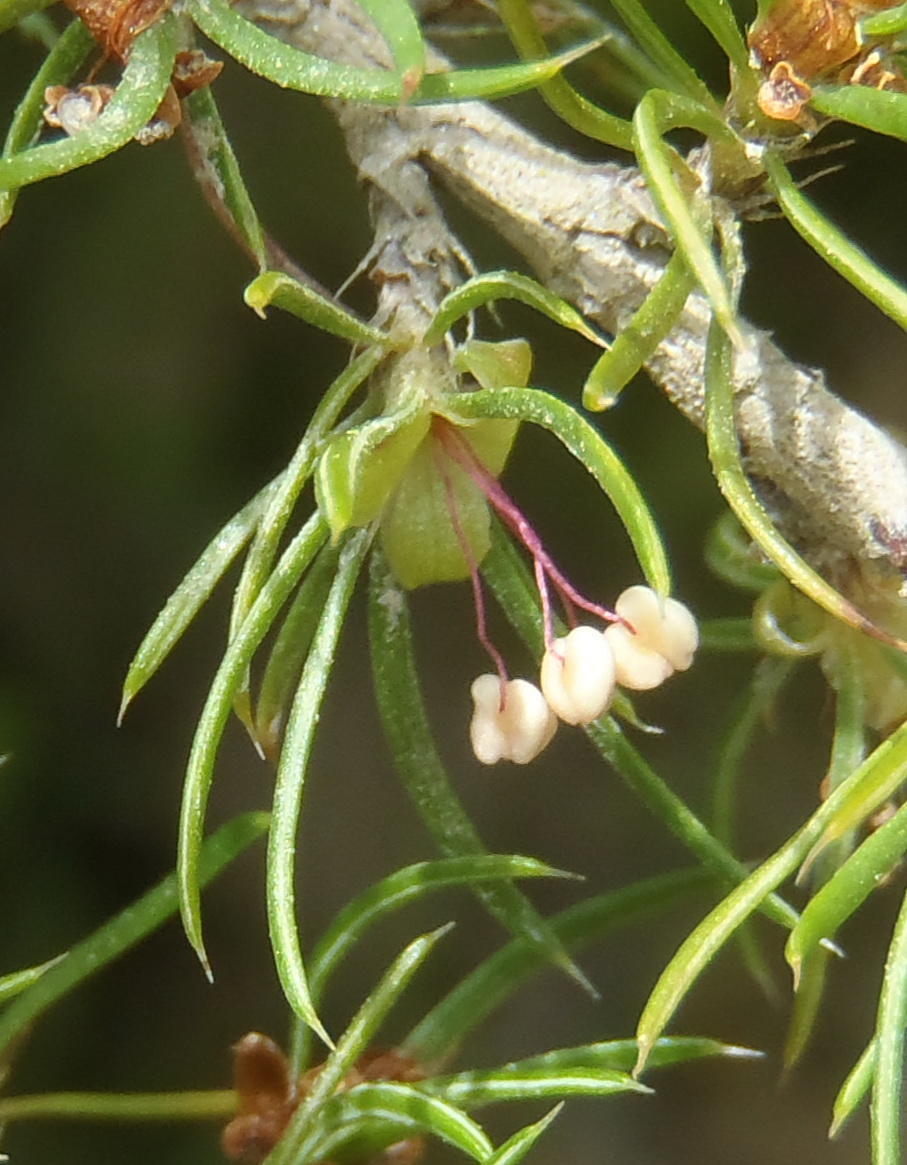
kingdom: Plantae
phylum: Tracheophyta
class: Magnoliopsida
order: Rosales
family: Rosaceae
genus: Cliffortia
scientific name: Cliffortia paucistaminea
